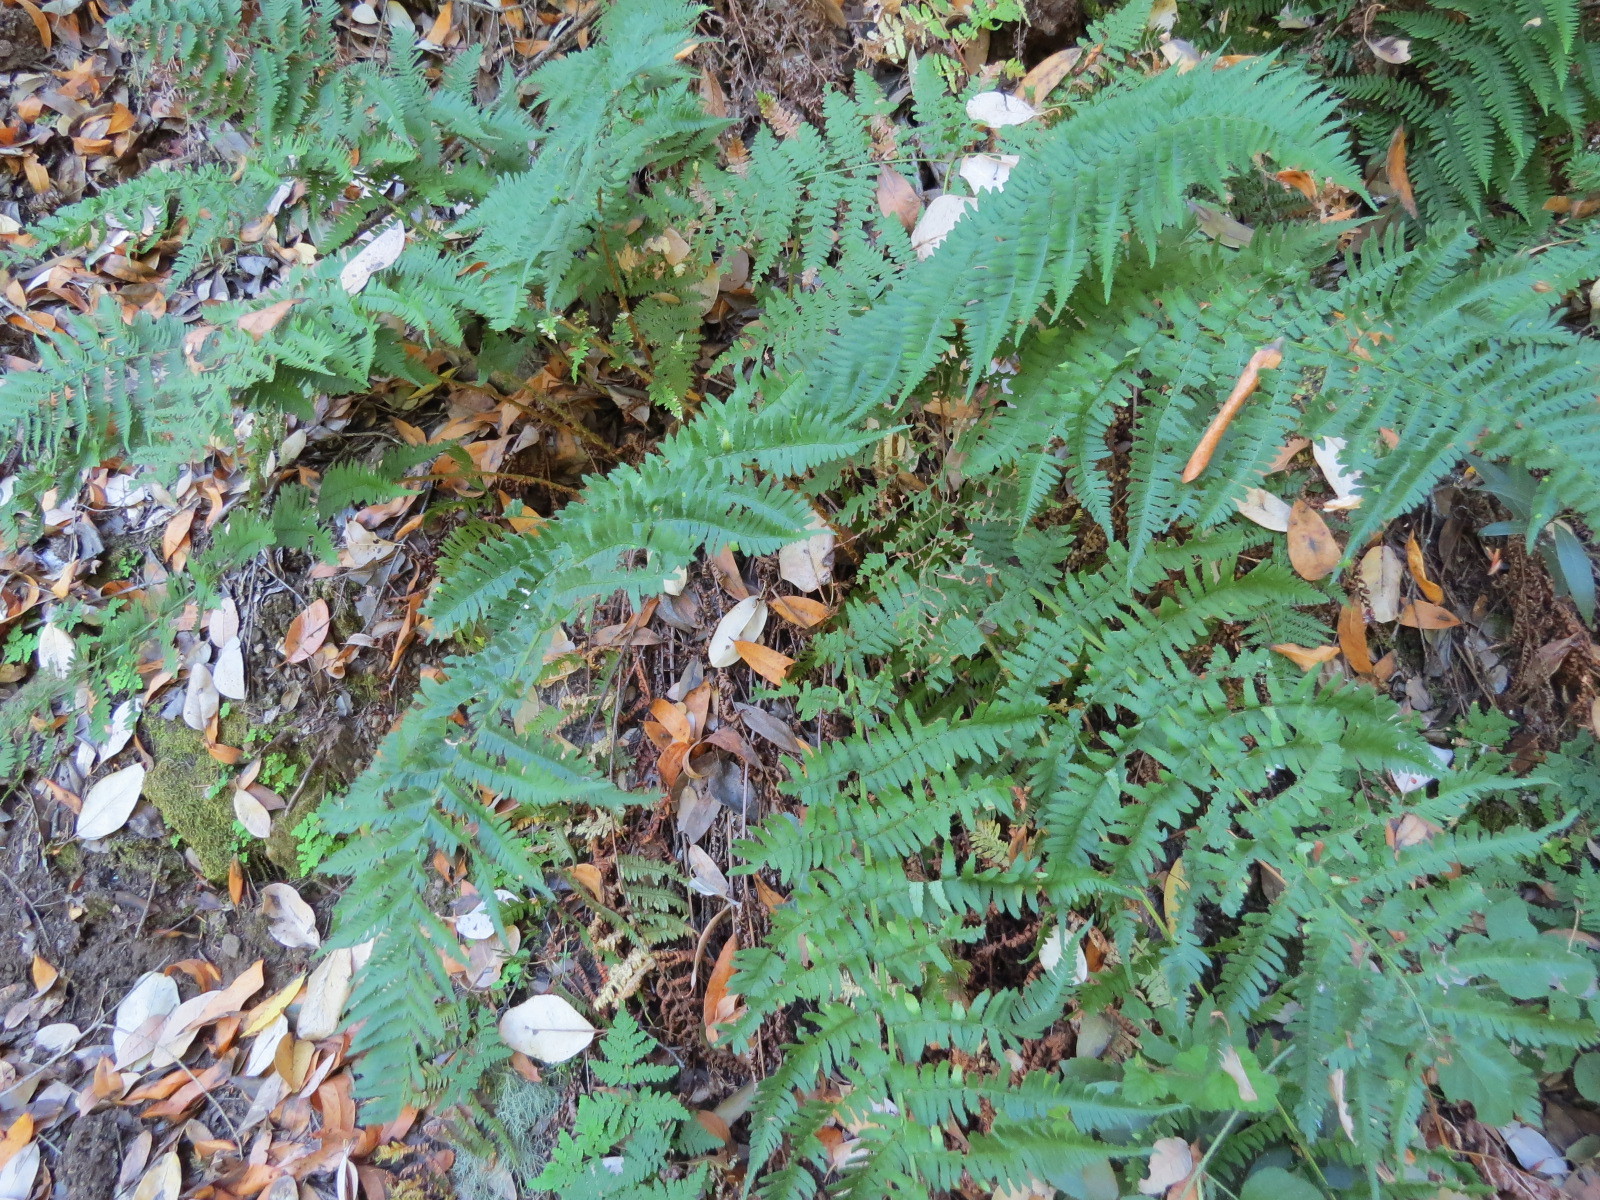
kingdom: Plantae
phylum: Tracheophyta
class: Polypodiopsida
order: Polypodiales
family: Dryopteridaceae
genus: Dryopteris
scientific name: Dryopteris arguta
